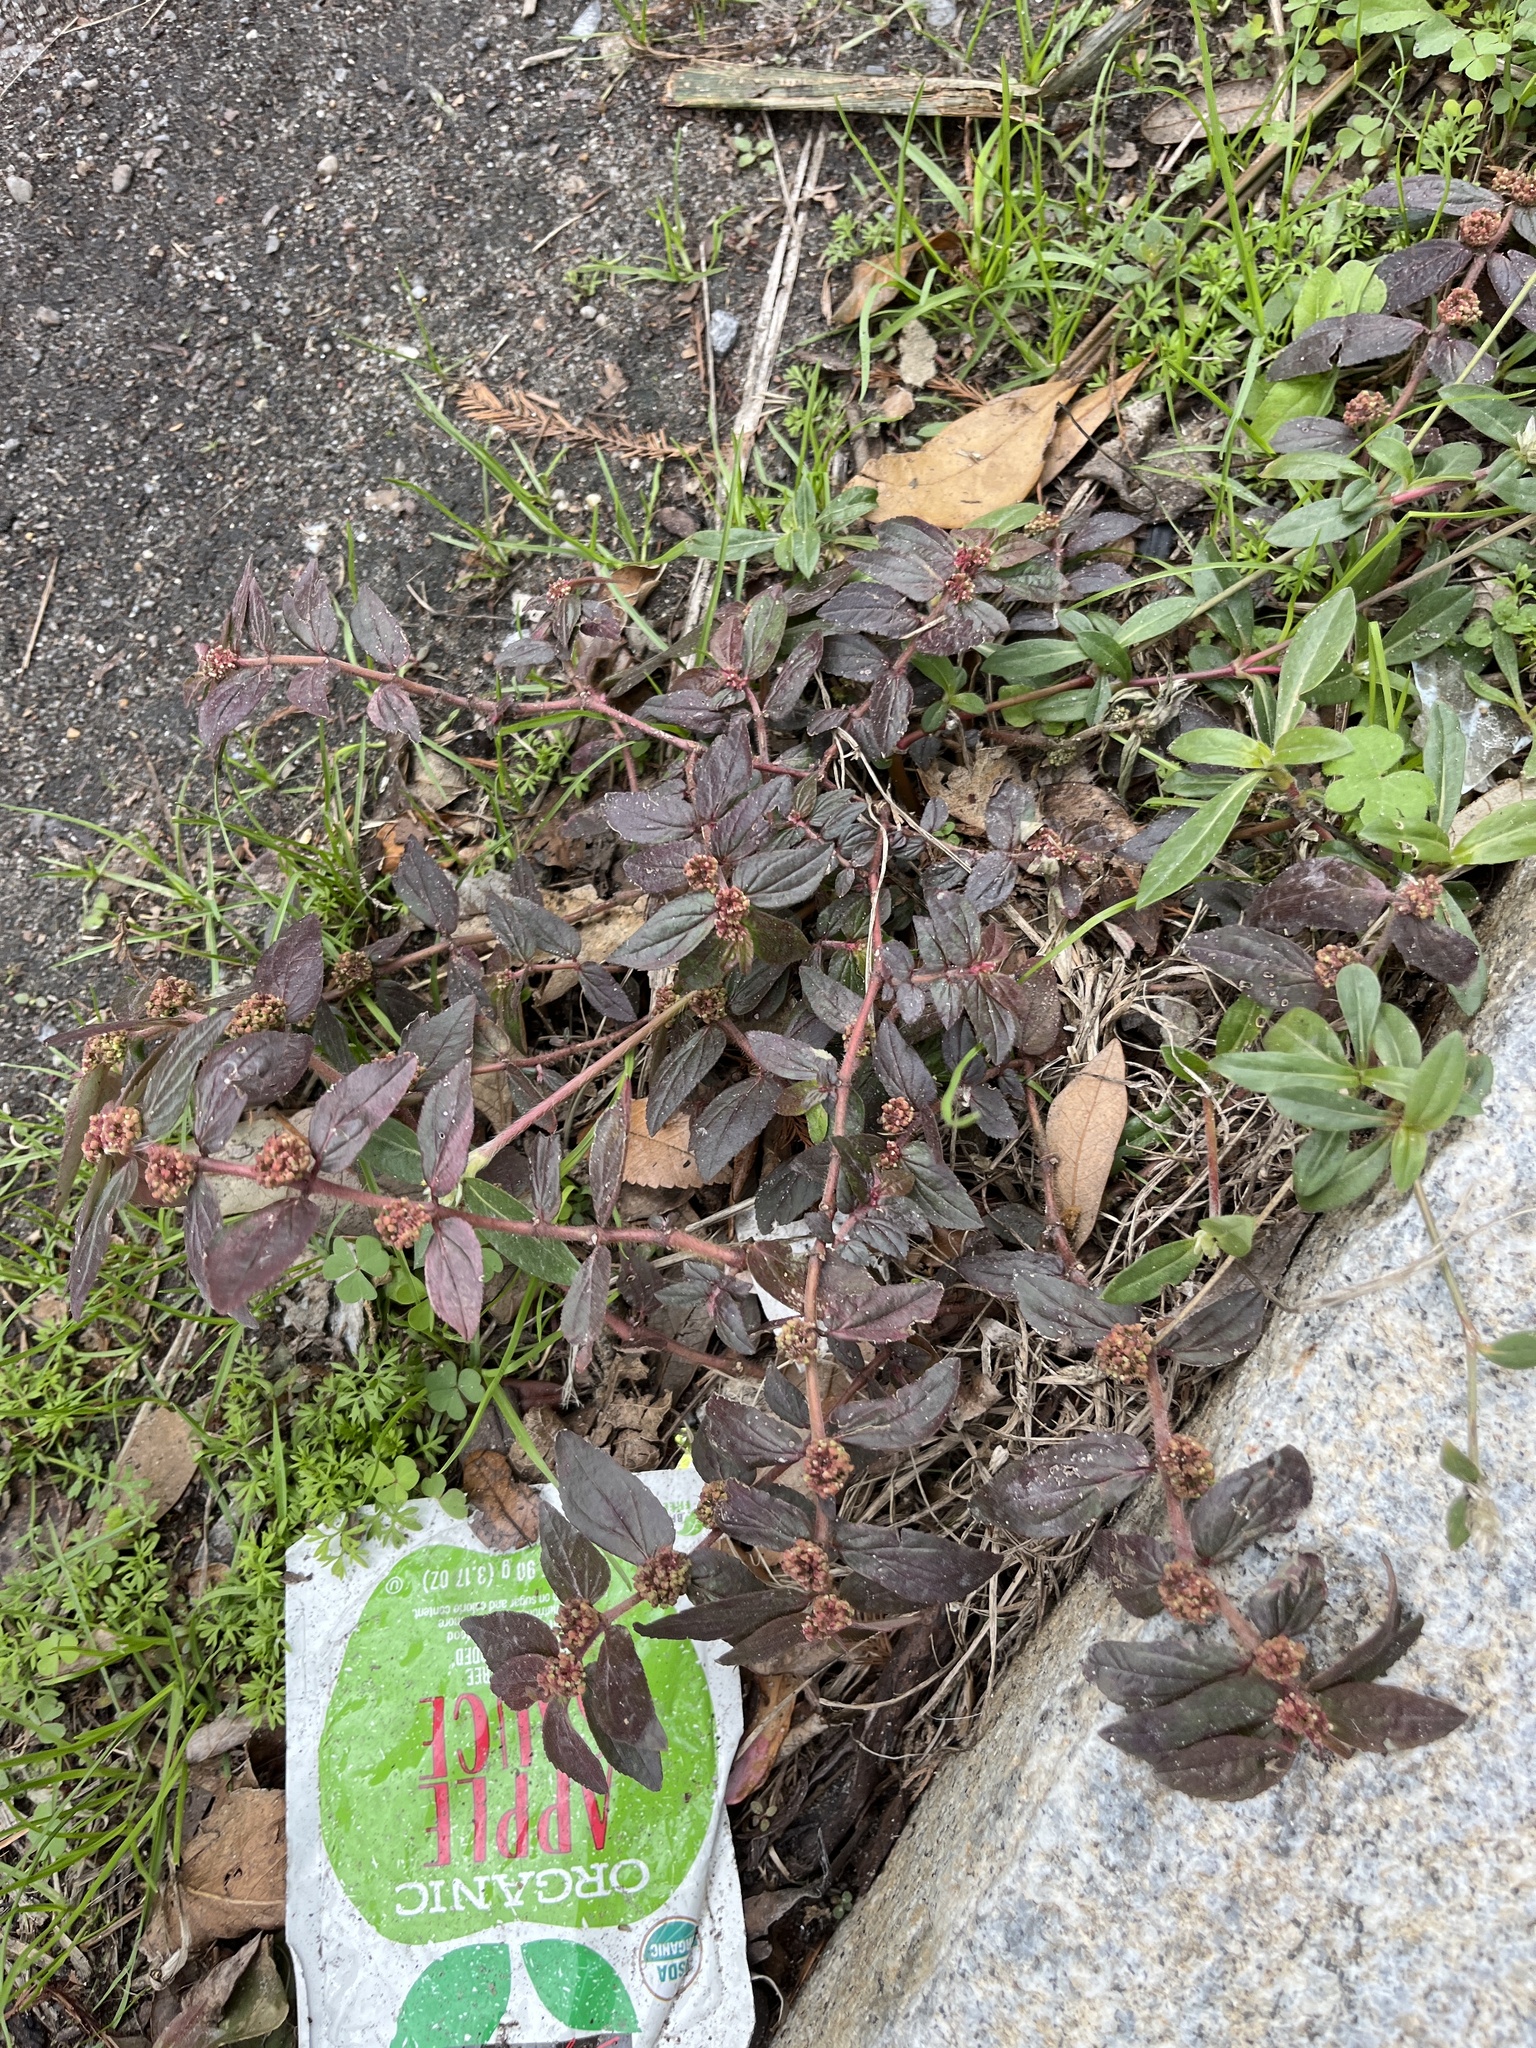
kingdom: Plantae
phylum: Tracheophyta
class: Magnoliopsida
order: Malpighiales
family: Euphorbiaceae
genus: Euphorbia
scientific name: Euphorbia hirta
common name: Pillpod sandmat
